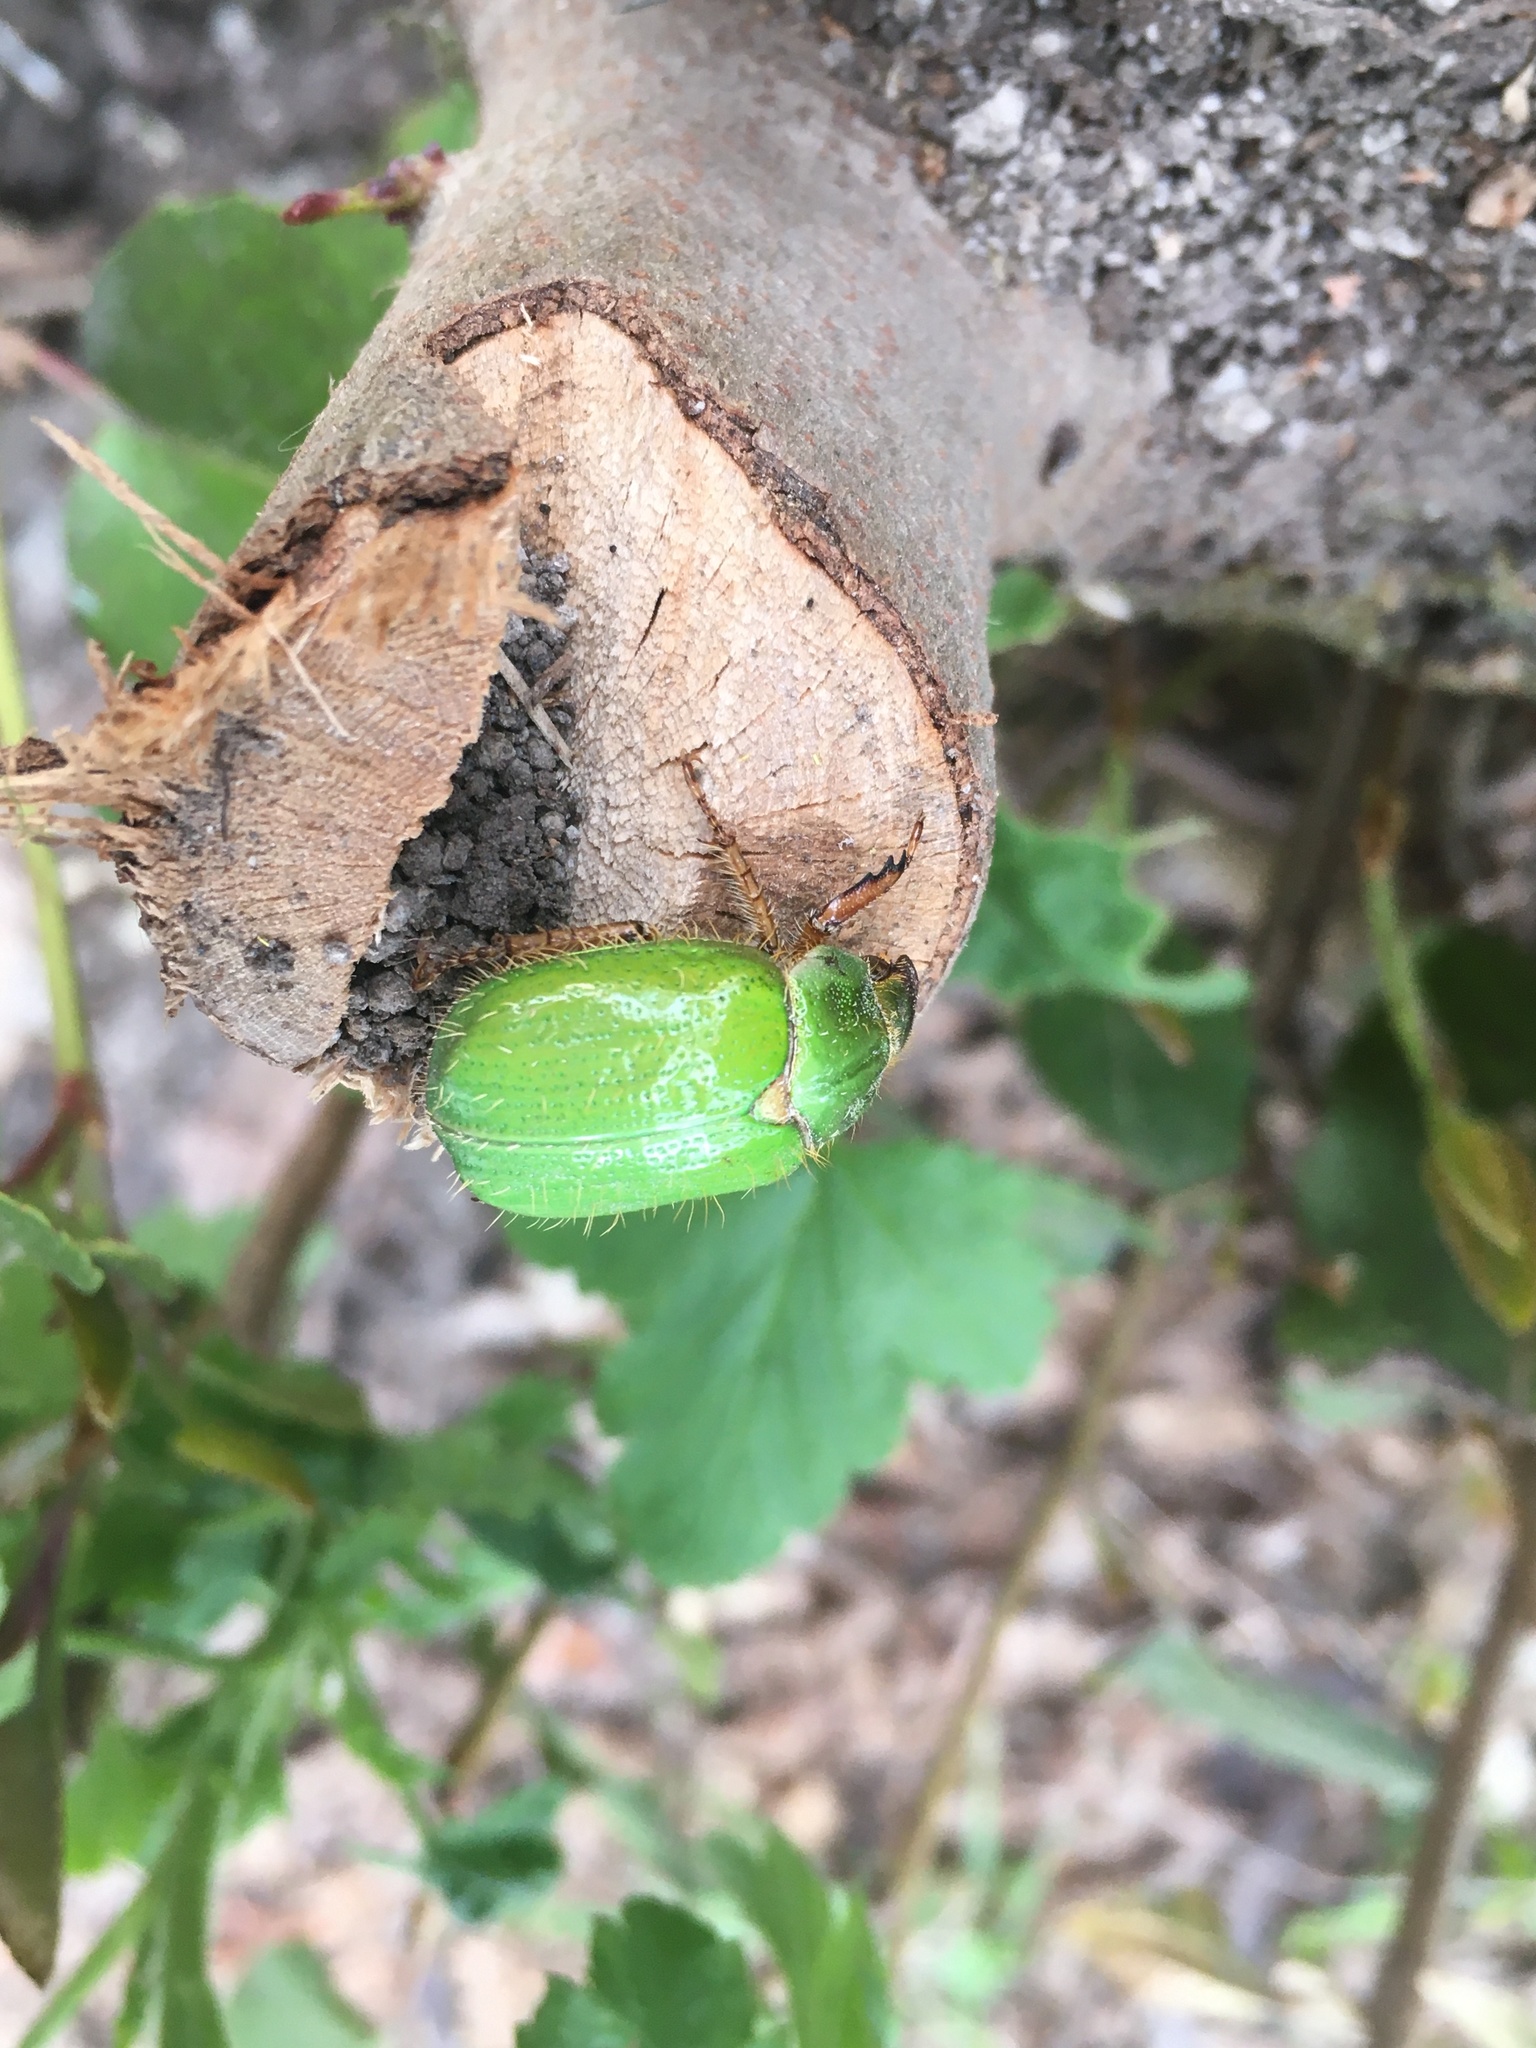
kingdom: Animalia
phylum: Arthropoda
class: Insecta
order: Coleoptera
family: Scarabaeidae
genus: Brachysternus
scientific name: Brachysternus prasinus
